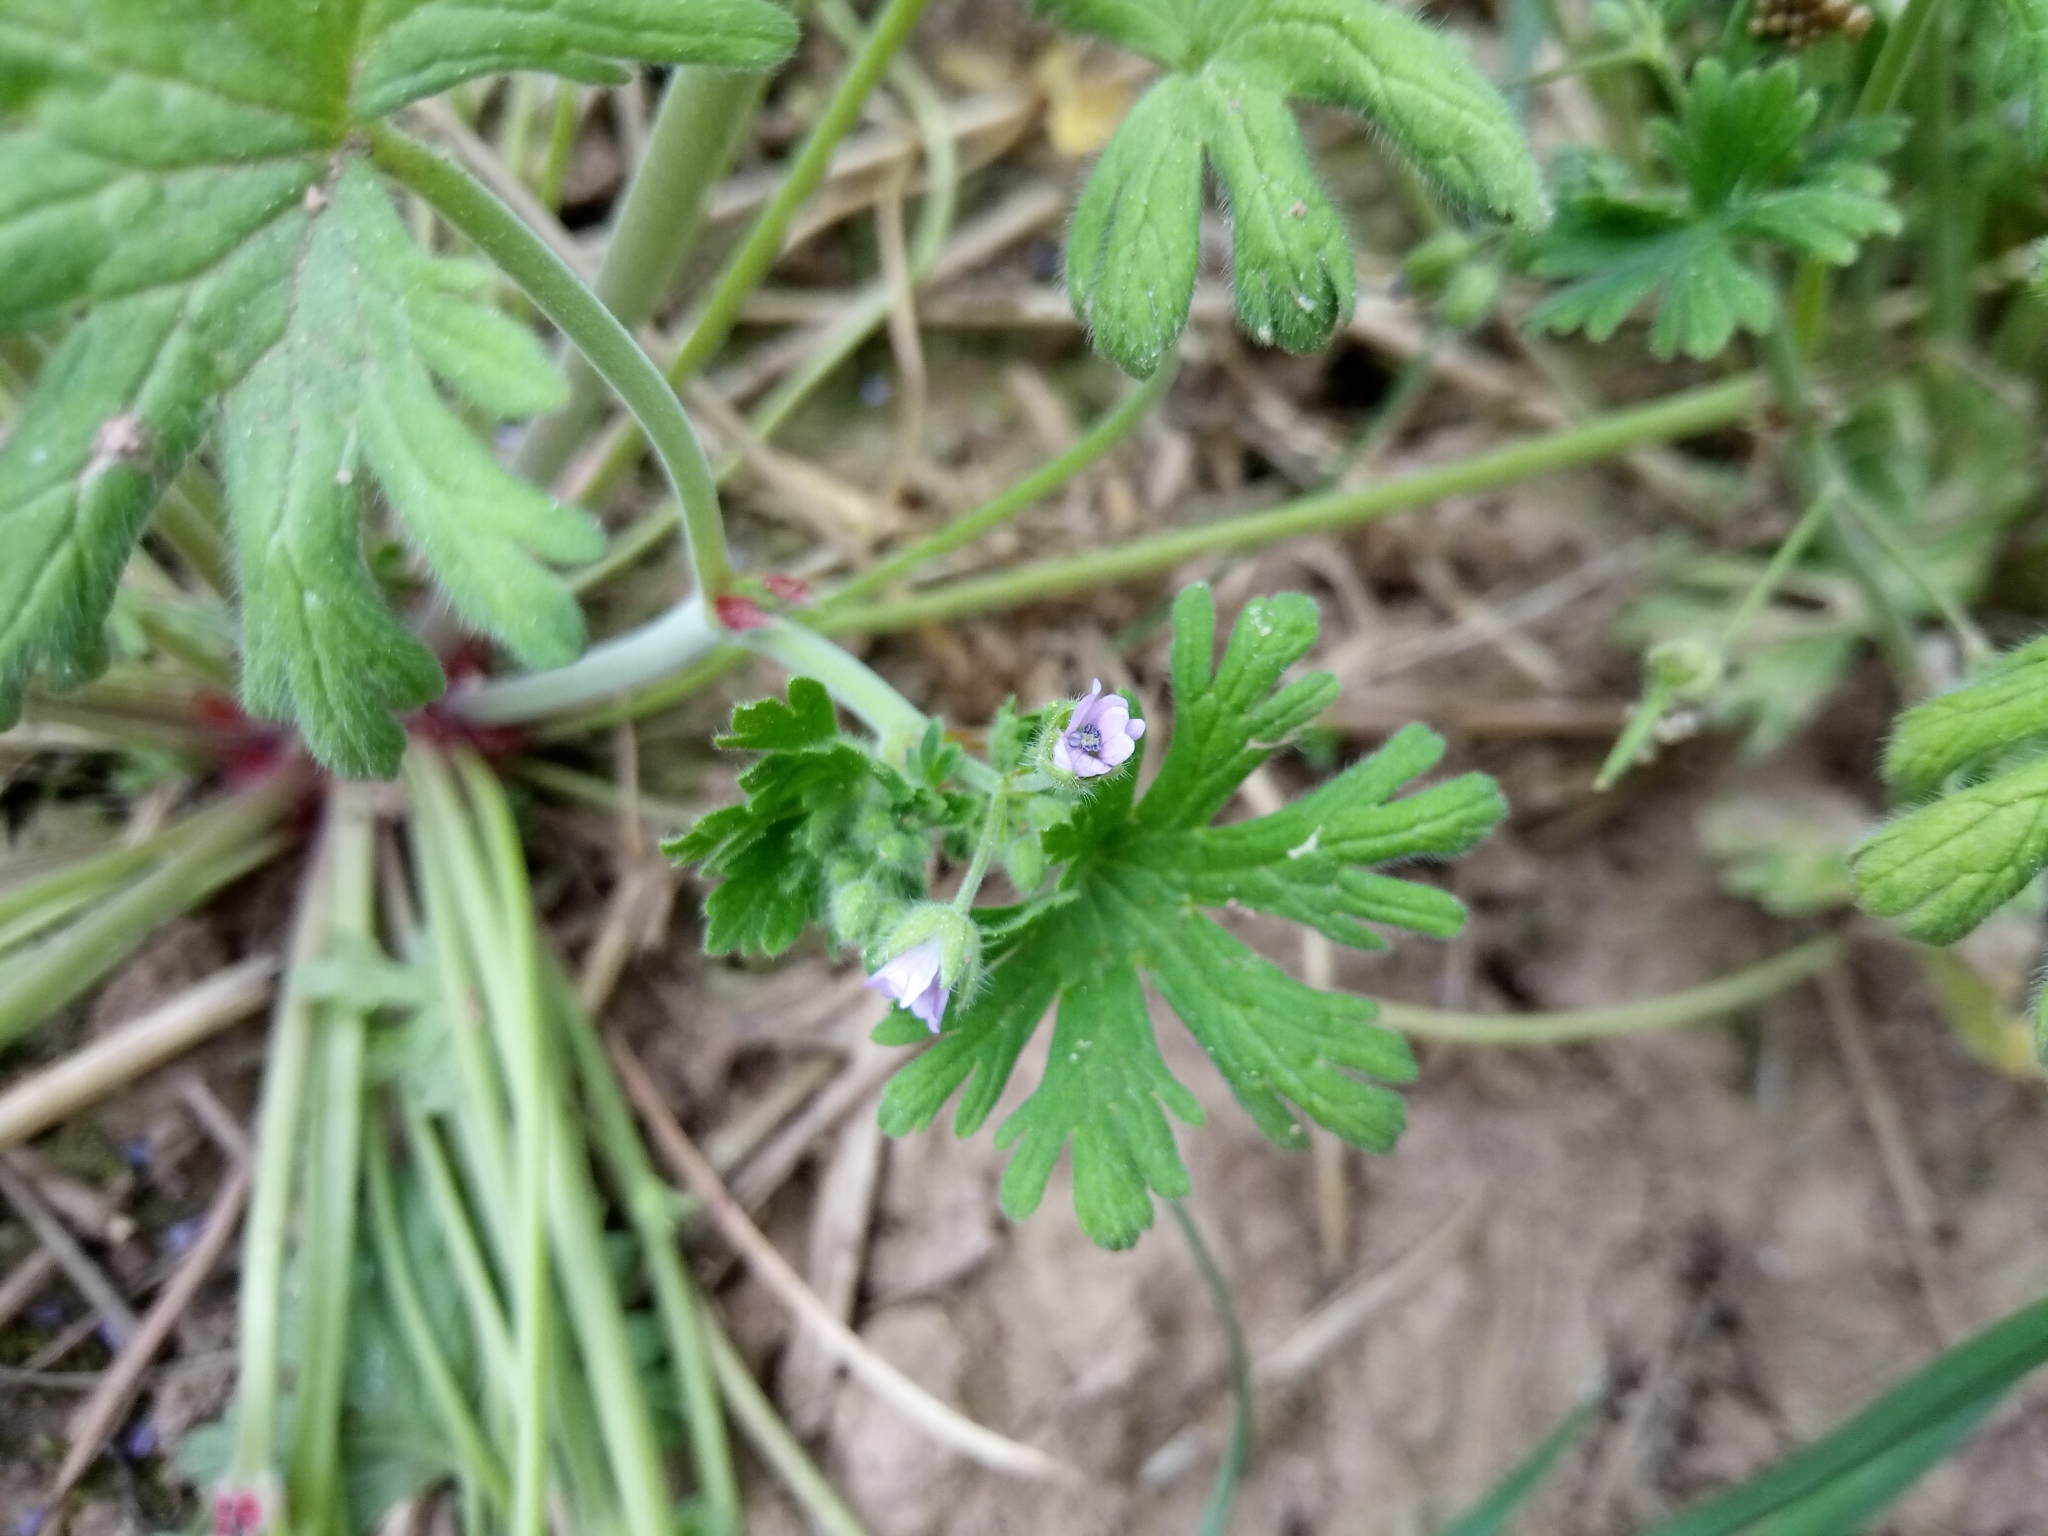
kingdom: Plantae
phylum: Tracheophyta
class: Magnoliopsida
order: Geraniales
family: Geraniaceae
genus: Geranium
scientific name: Geranium pusillum
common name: Small geranium
